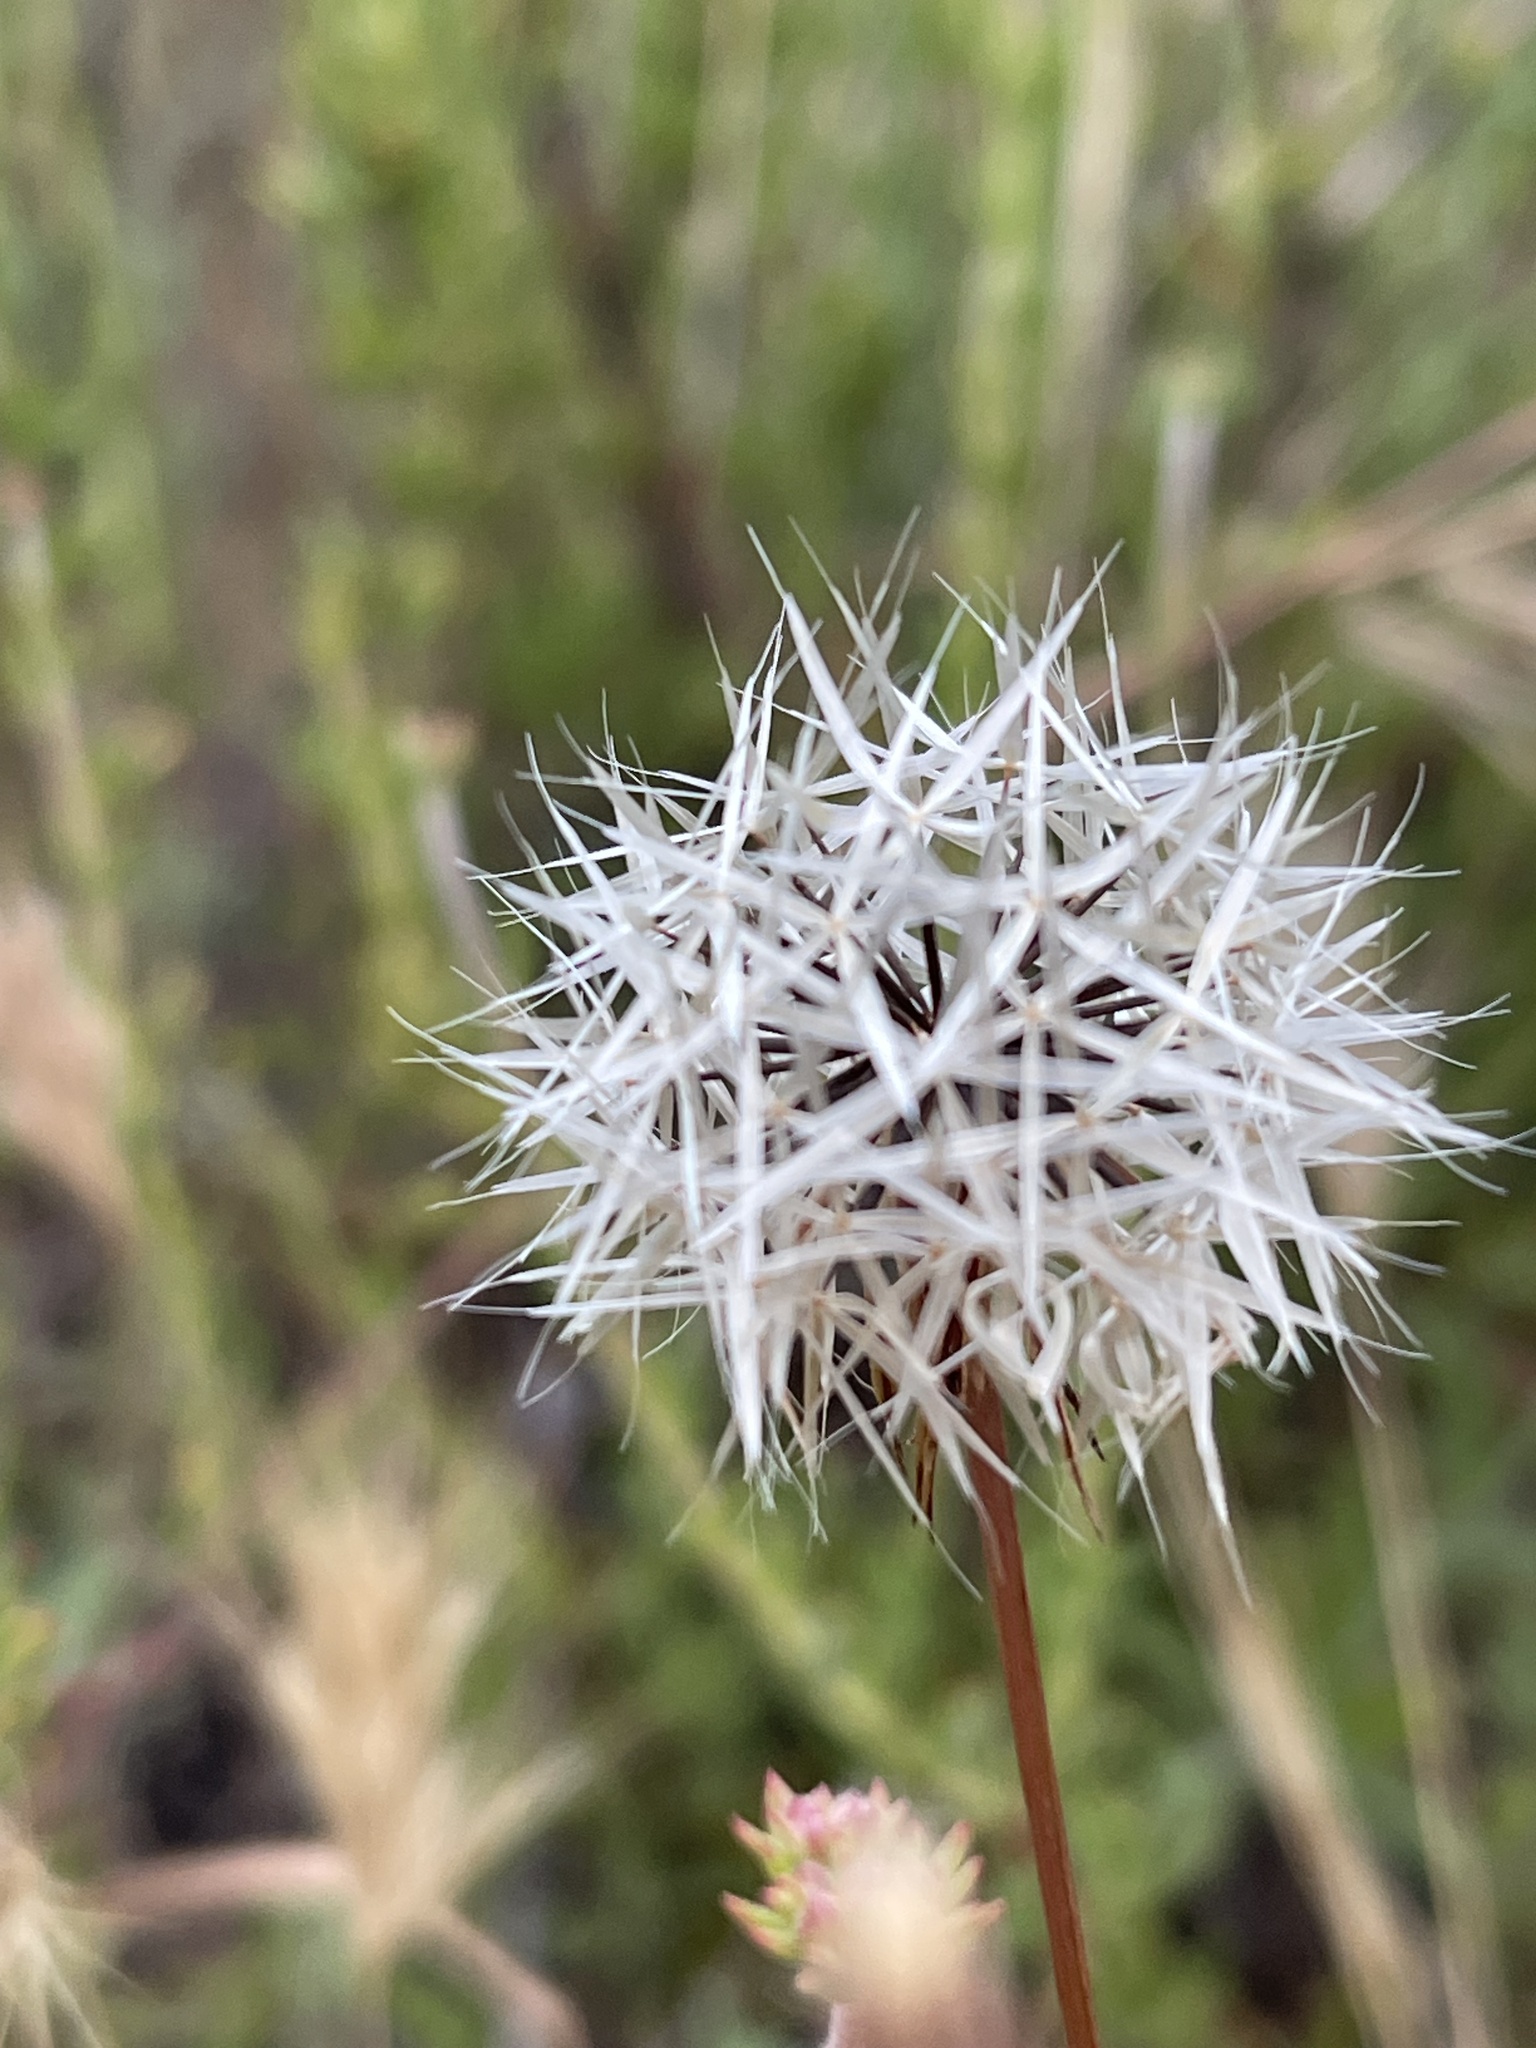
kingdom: Plantae
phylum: Tracheophyta
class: Magnoliopsida
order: Asterales
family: Asteraceae
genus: Microseris
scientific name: Microseris lindleyi
